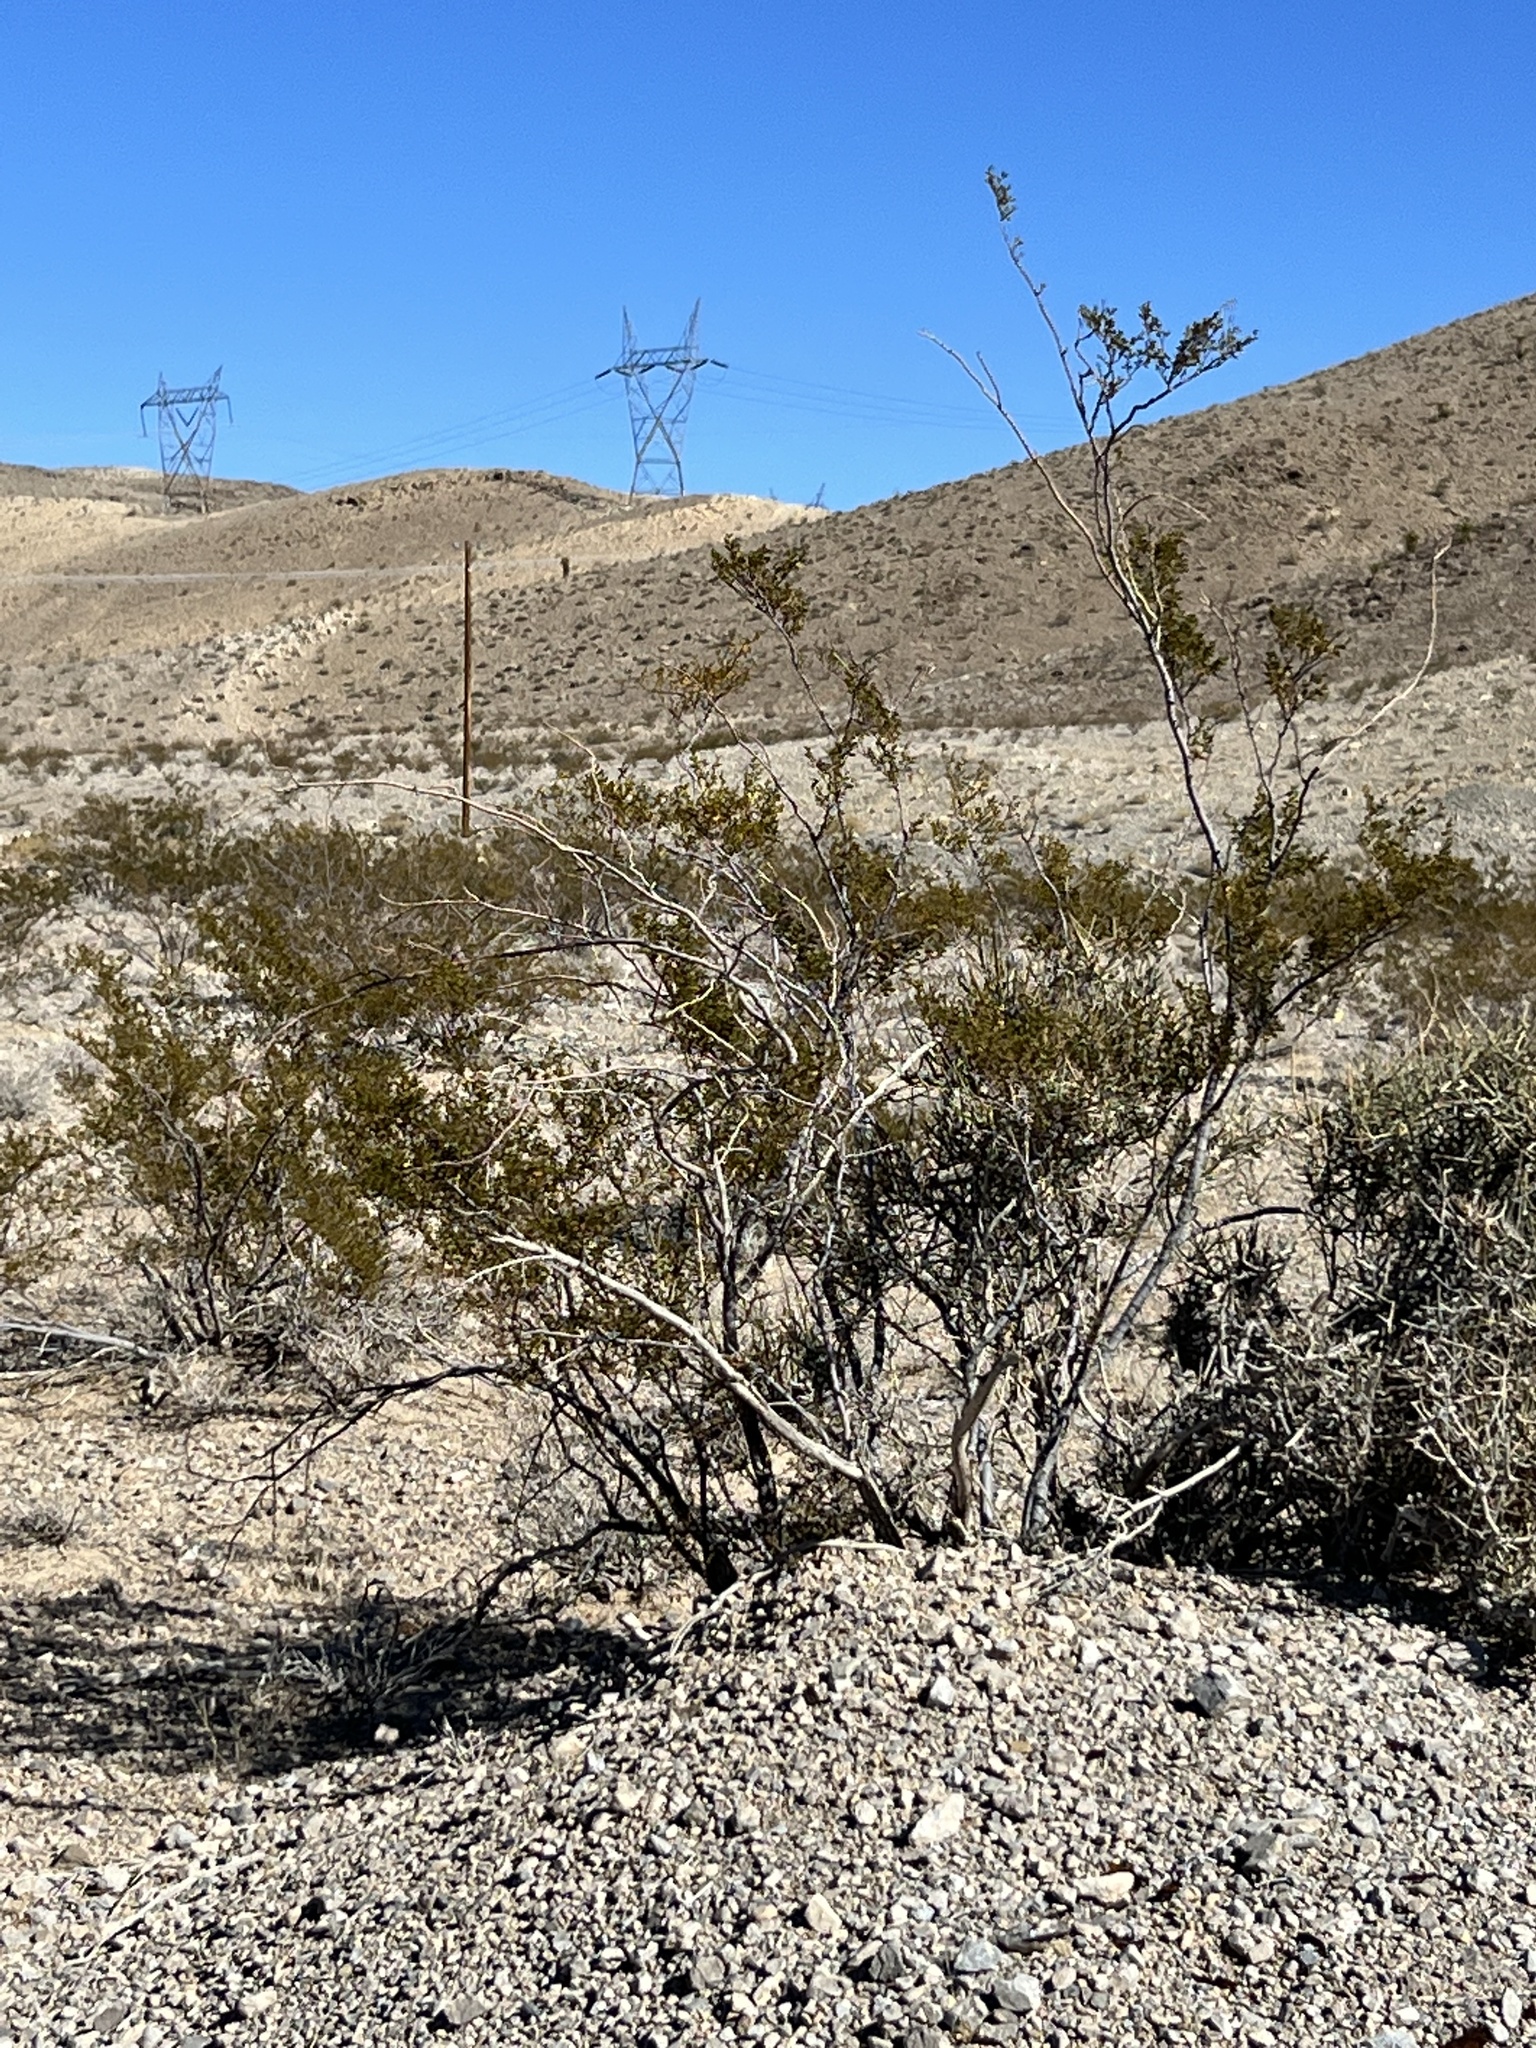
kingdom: Plantae
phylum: Tracheophyta
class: Magnoliopsida
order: Zygophyllales
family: Zygophyllaceae
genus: Larrea
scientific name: Larrea tridentata
